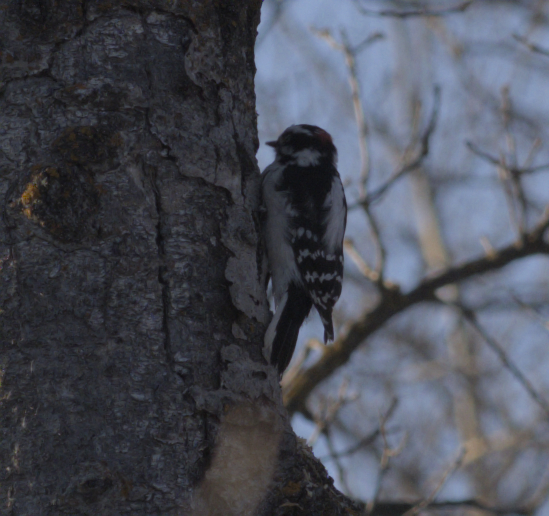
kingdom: Animalia
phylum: Chordata
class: Aves
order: Piciformes
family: Picidae
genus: Dryobates
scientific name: Dryobates pubescens
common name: Downy woodpecker
